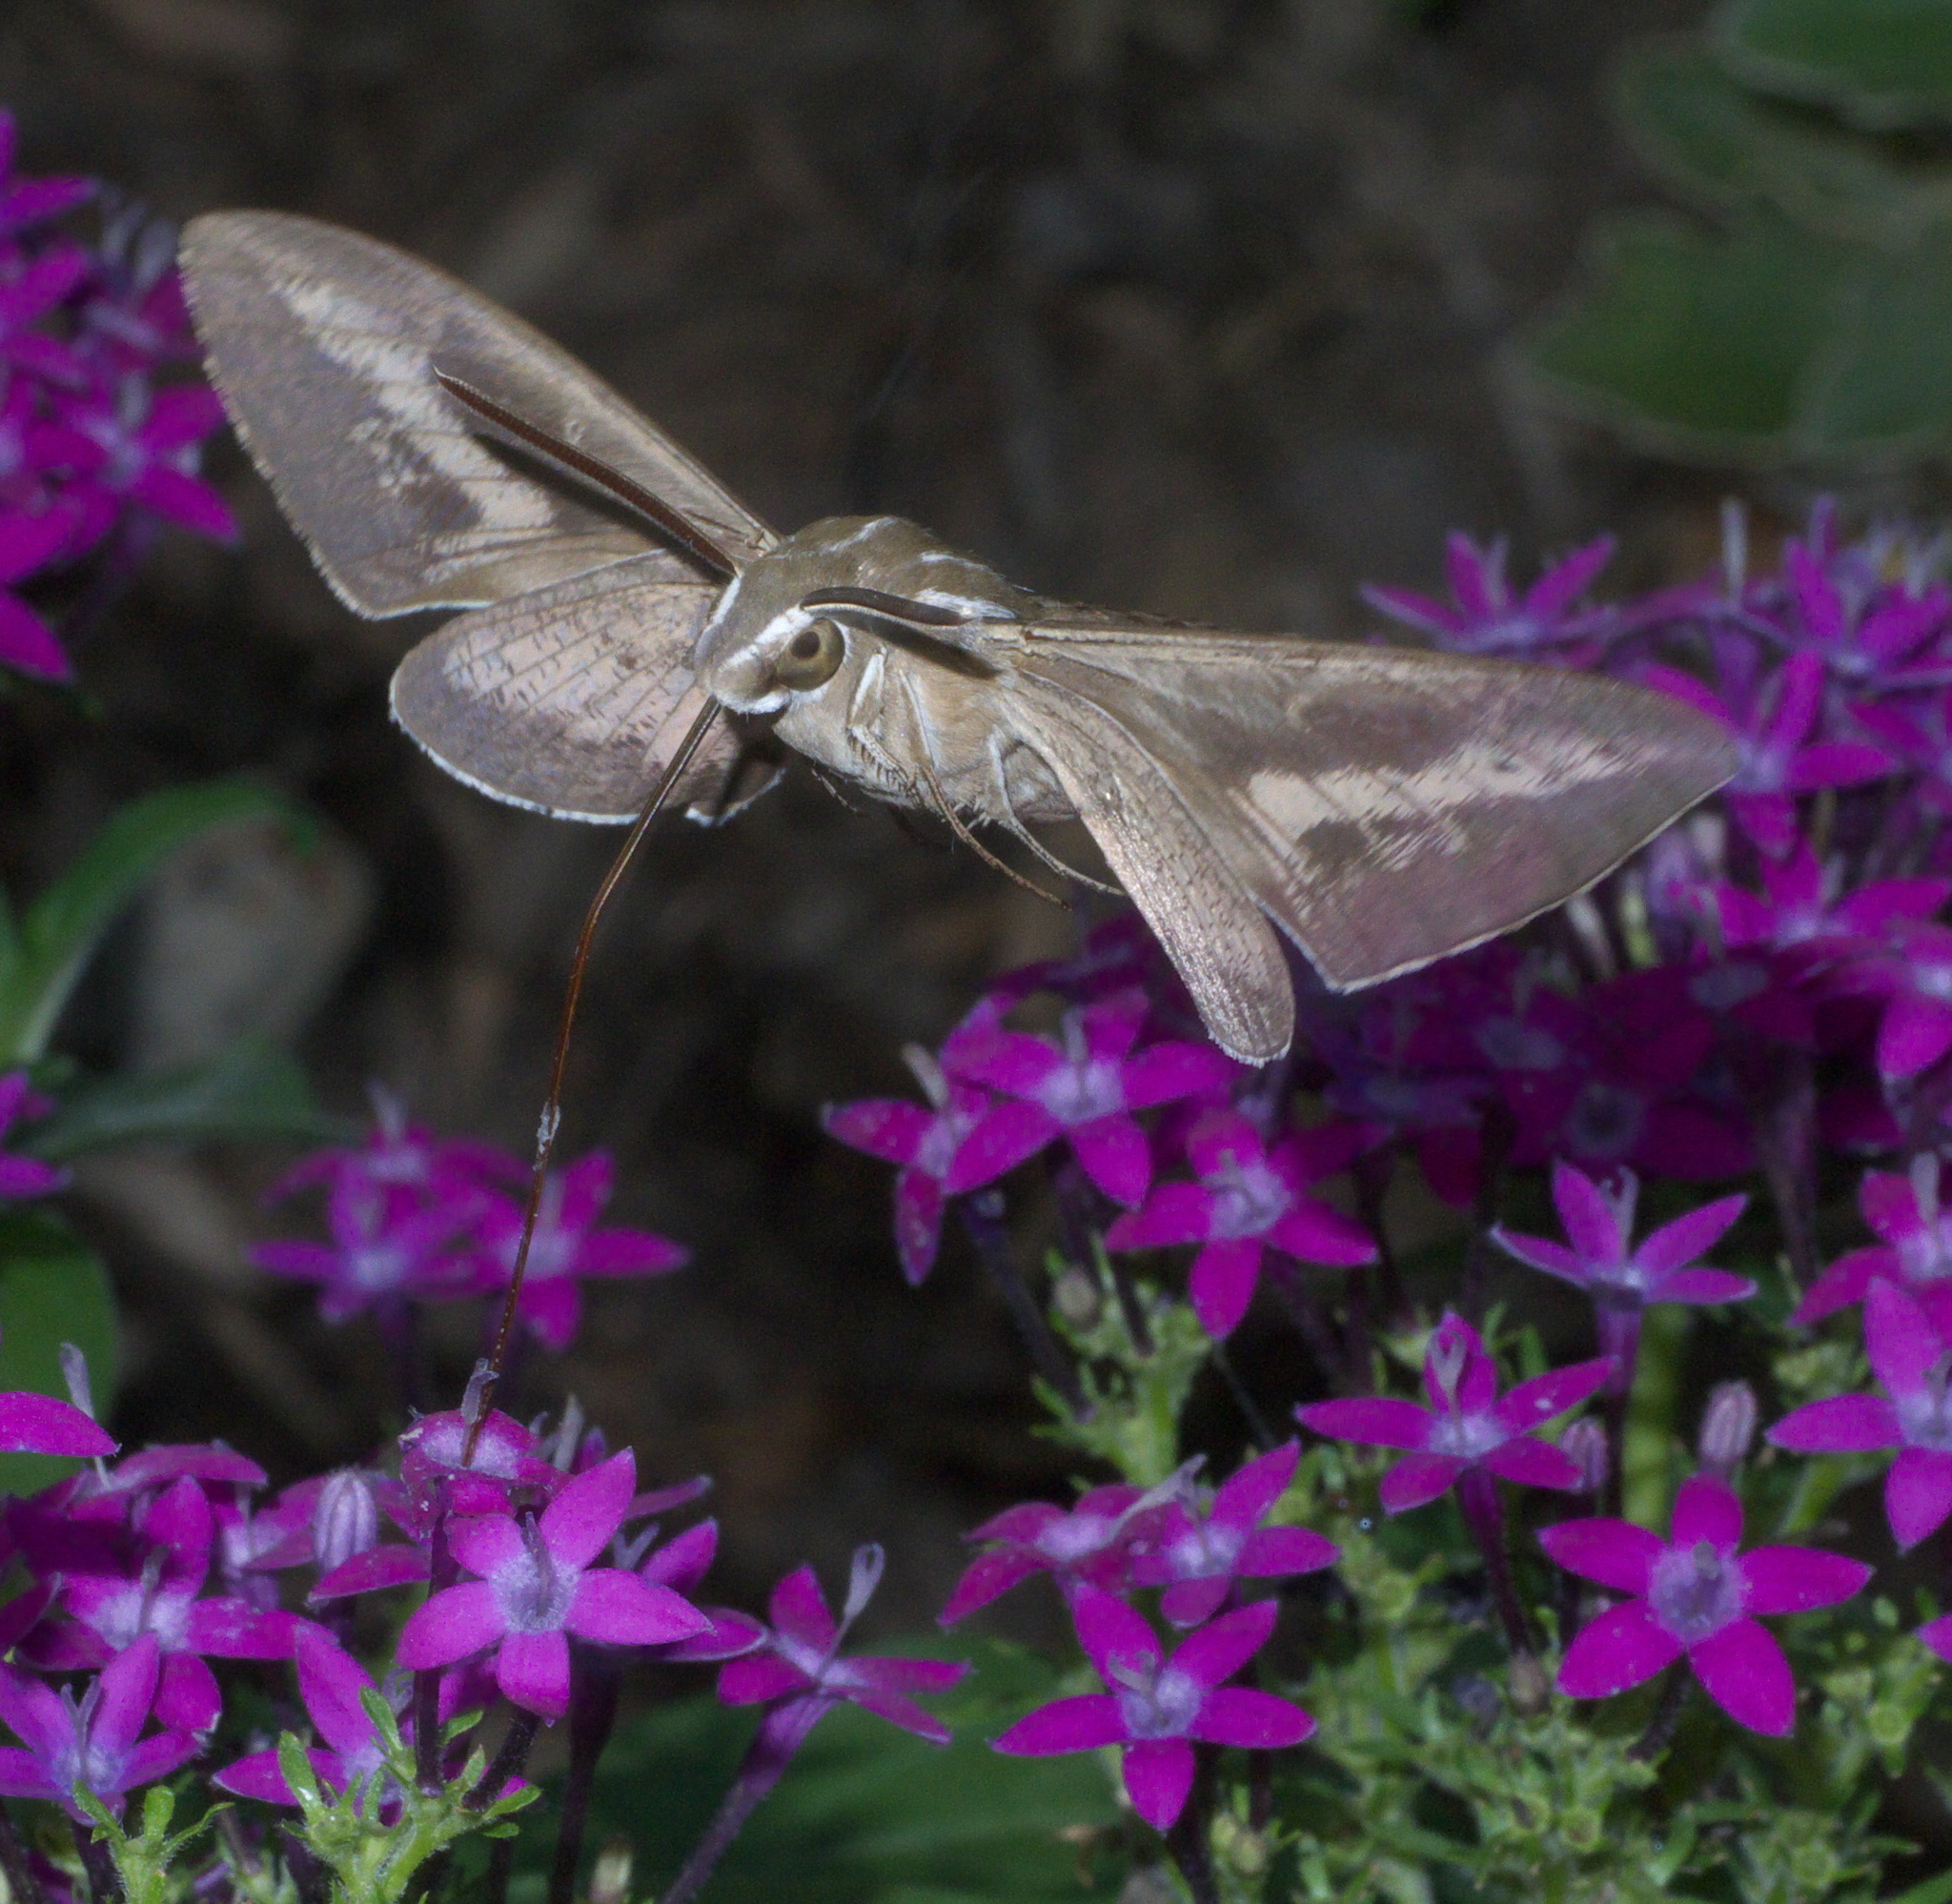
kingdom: Animalia
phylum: Arthropoda
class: Insecta
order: Lepidoptera
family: Sphingidae
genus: Hyles
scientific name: Hyles lineata
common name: White-lined sphinx
